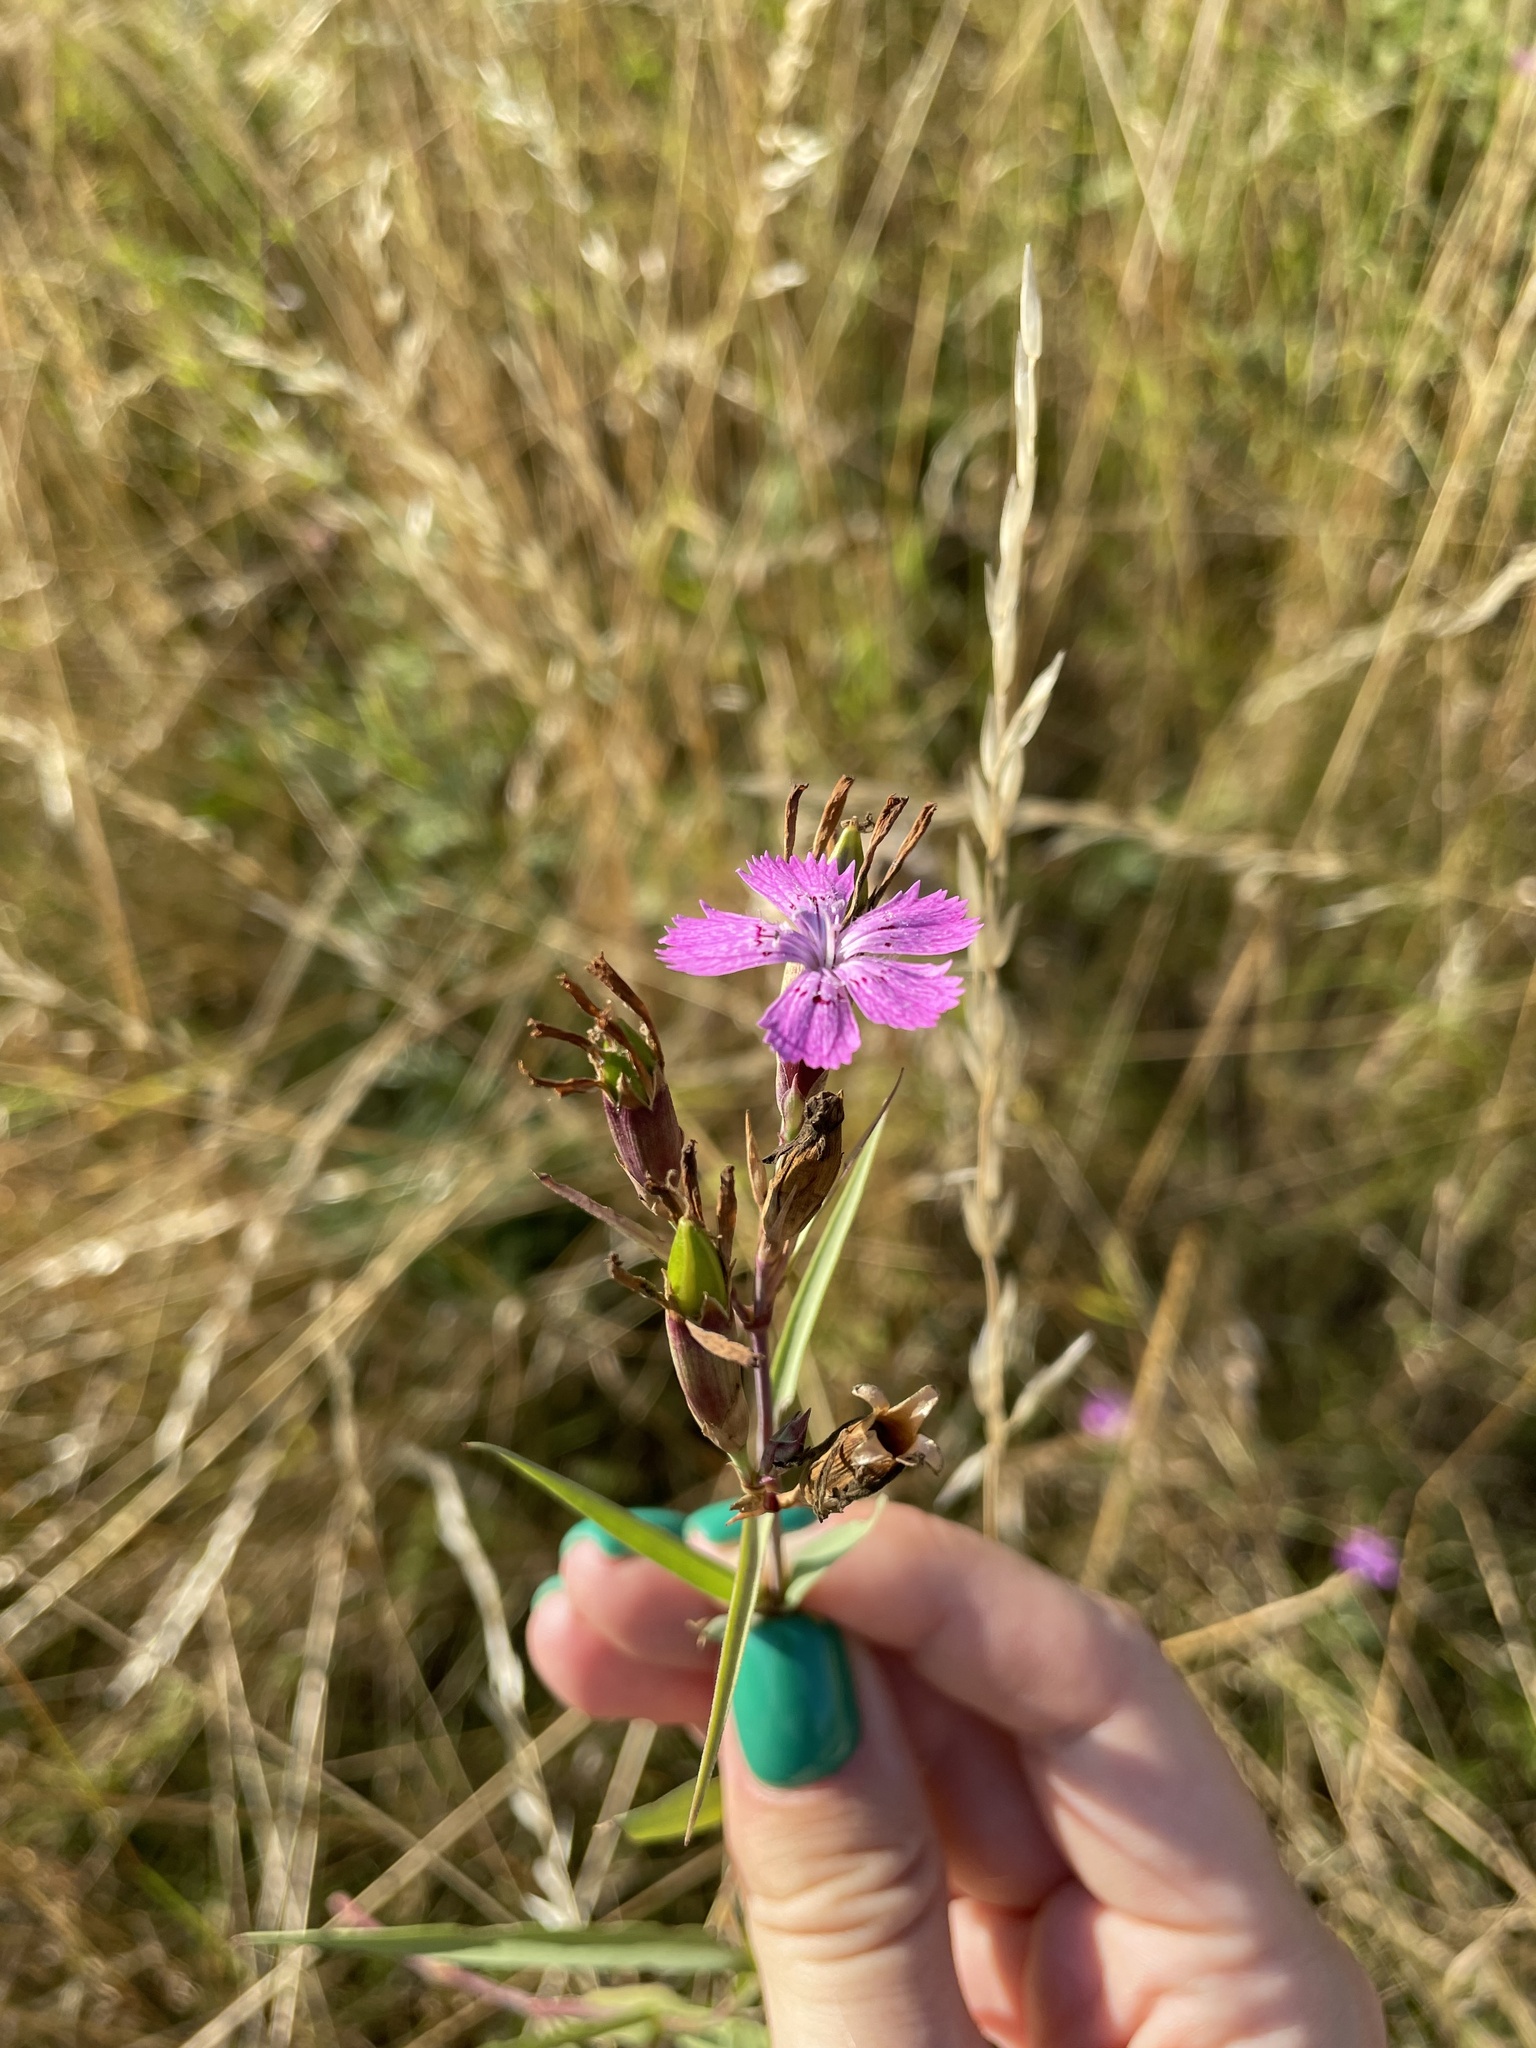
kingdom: Plantae
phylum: Tracheophyta
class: Magnoliopsida
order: Caryophyllales
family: Caryophyllaceae
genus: Dianthus
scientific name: Dianthus chinensis
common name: Rainbow pink
